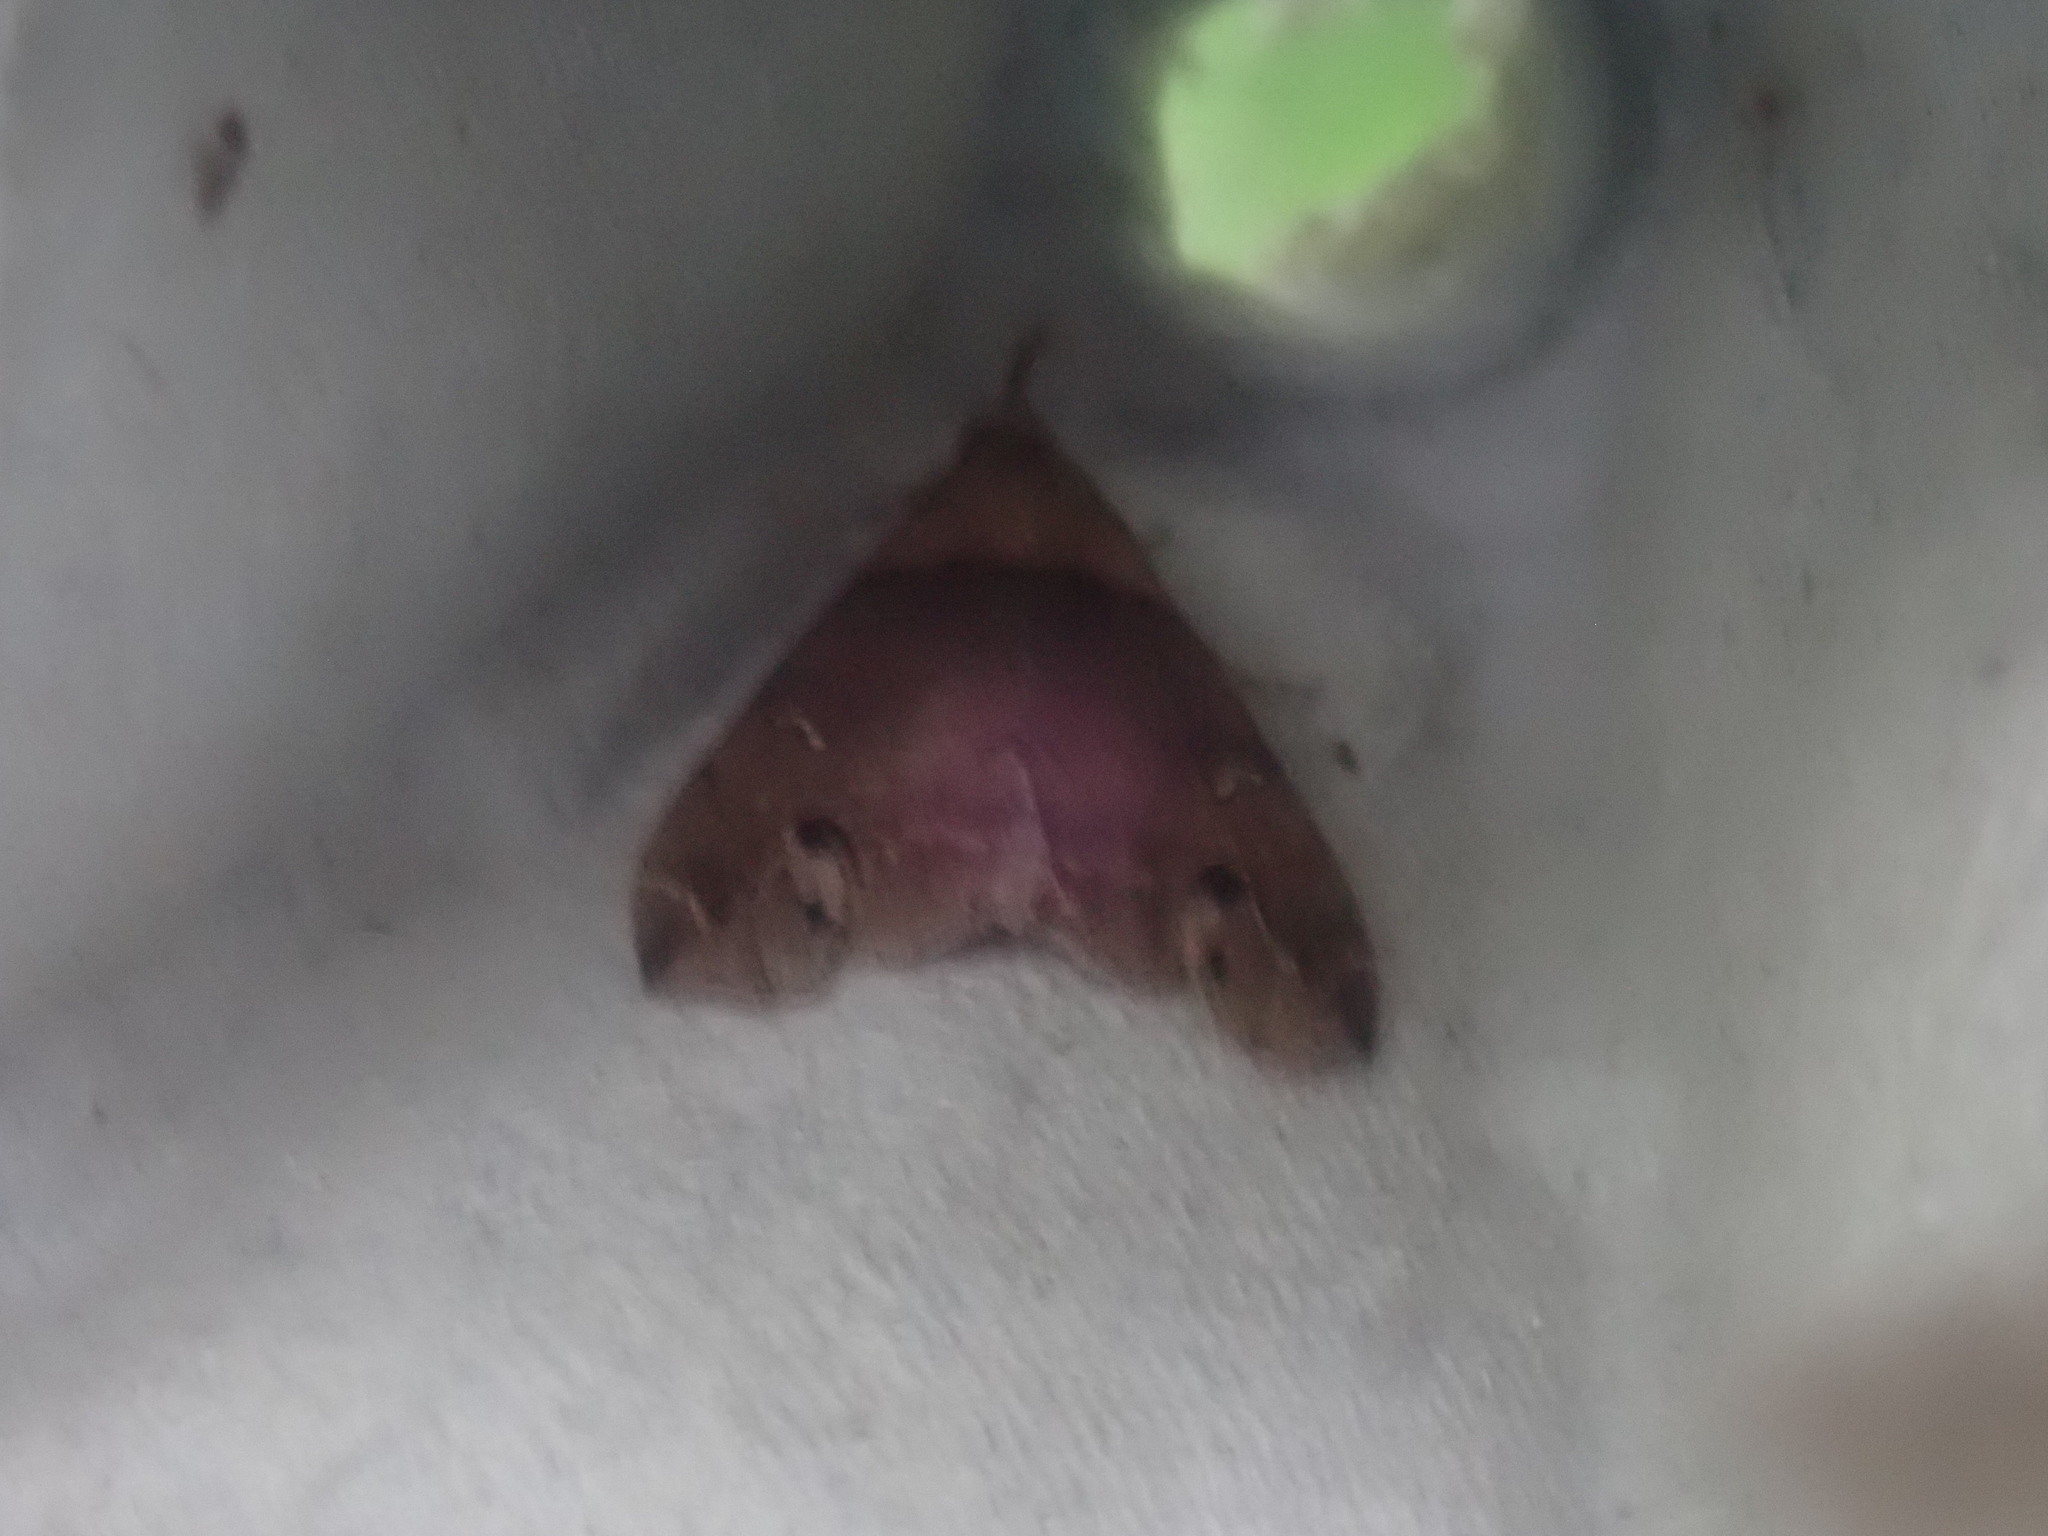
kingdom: Animalia
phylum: Arthropoda
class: Insecta
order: Lepidoptera
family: Erebidae
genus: Lascoria
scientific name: Lascoria ambigualis
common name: Ambiguous moth
